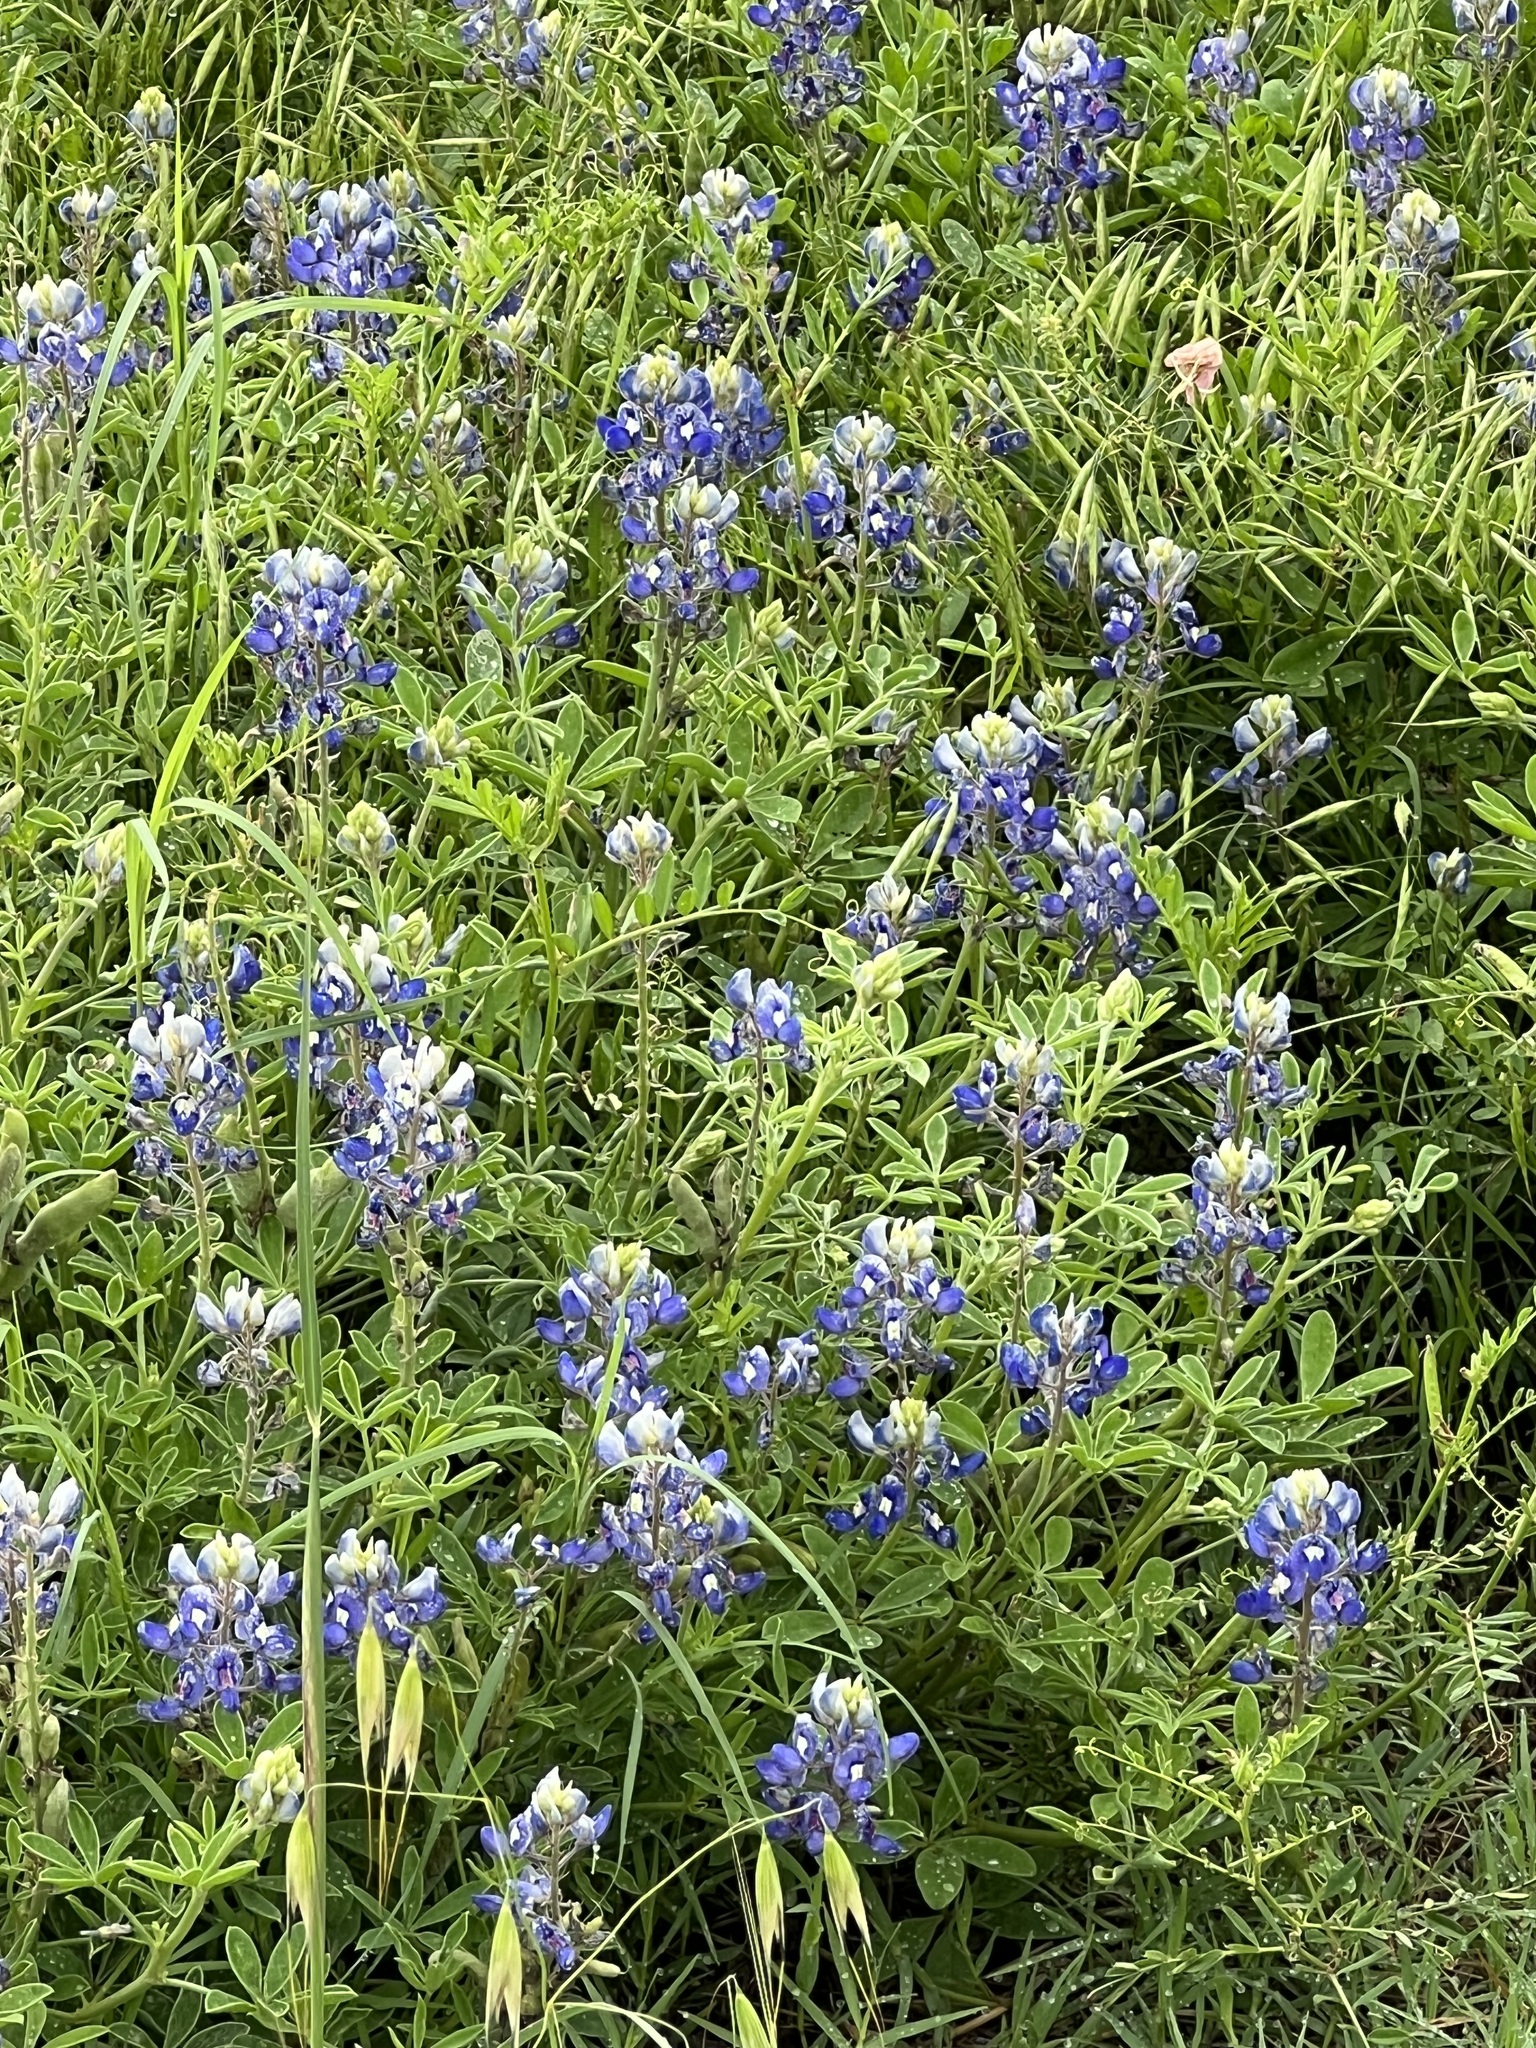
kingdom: Plantae
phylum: Tracheophyta
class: Magnoliopsida
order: Fabales
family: Fabaceae
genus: Lupinus
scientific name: Lupinus texensis
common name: Texas bluebonnet
